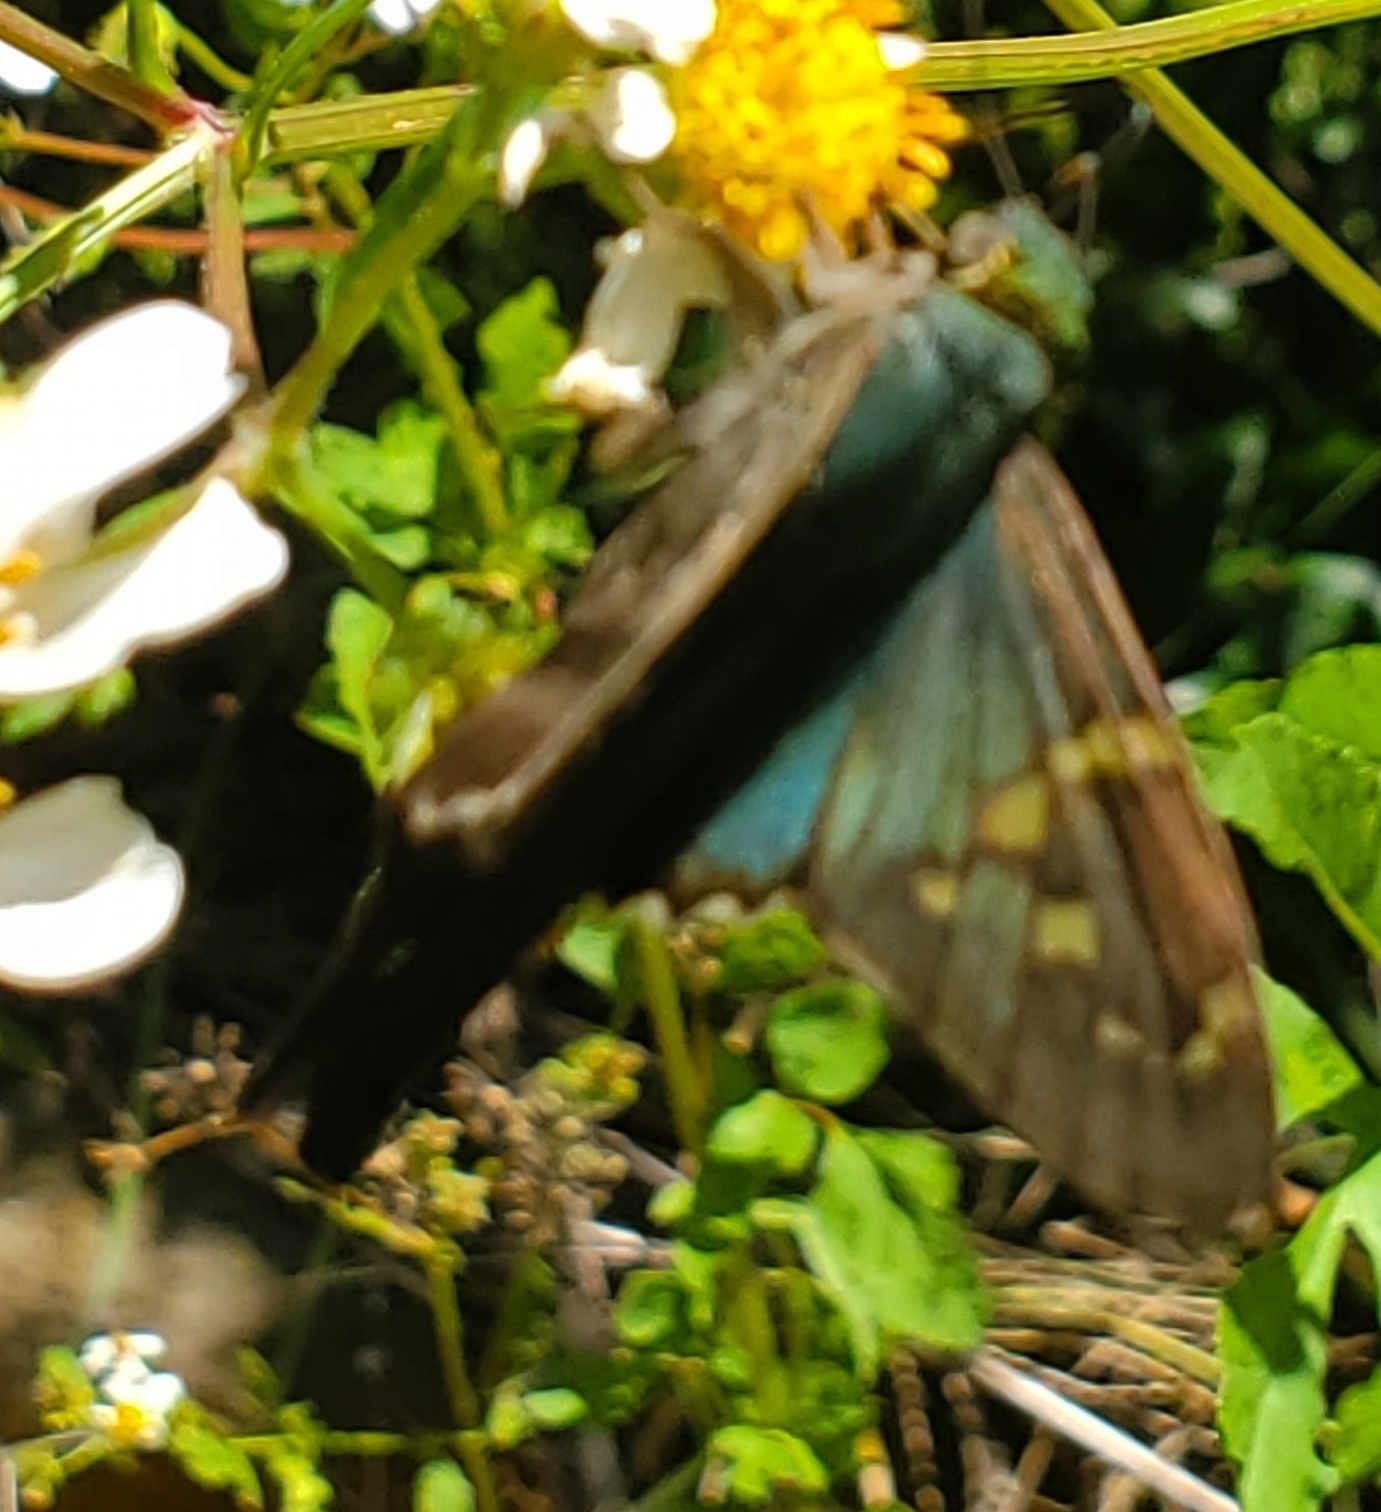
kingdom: Animalia
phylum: Arthropoda
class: Insecta
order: Lepidoptera
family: Hesperiidae
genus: Urbanus
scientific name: Urbanus proteus
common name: Long-tailed skipper
